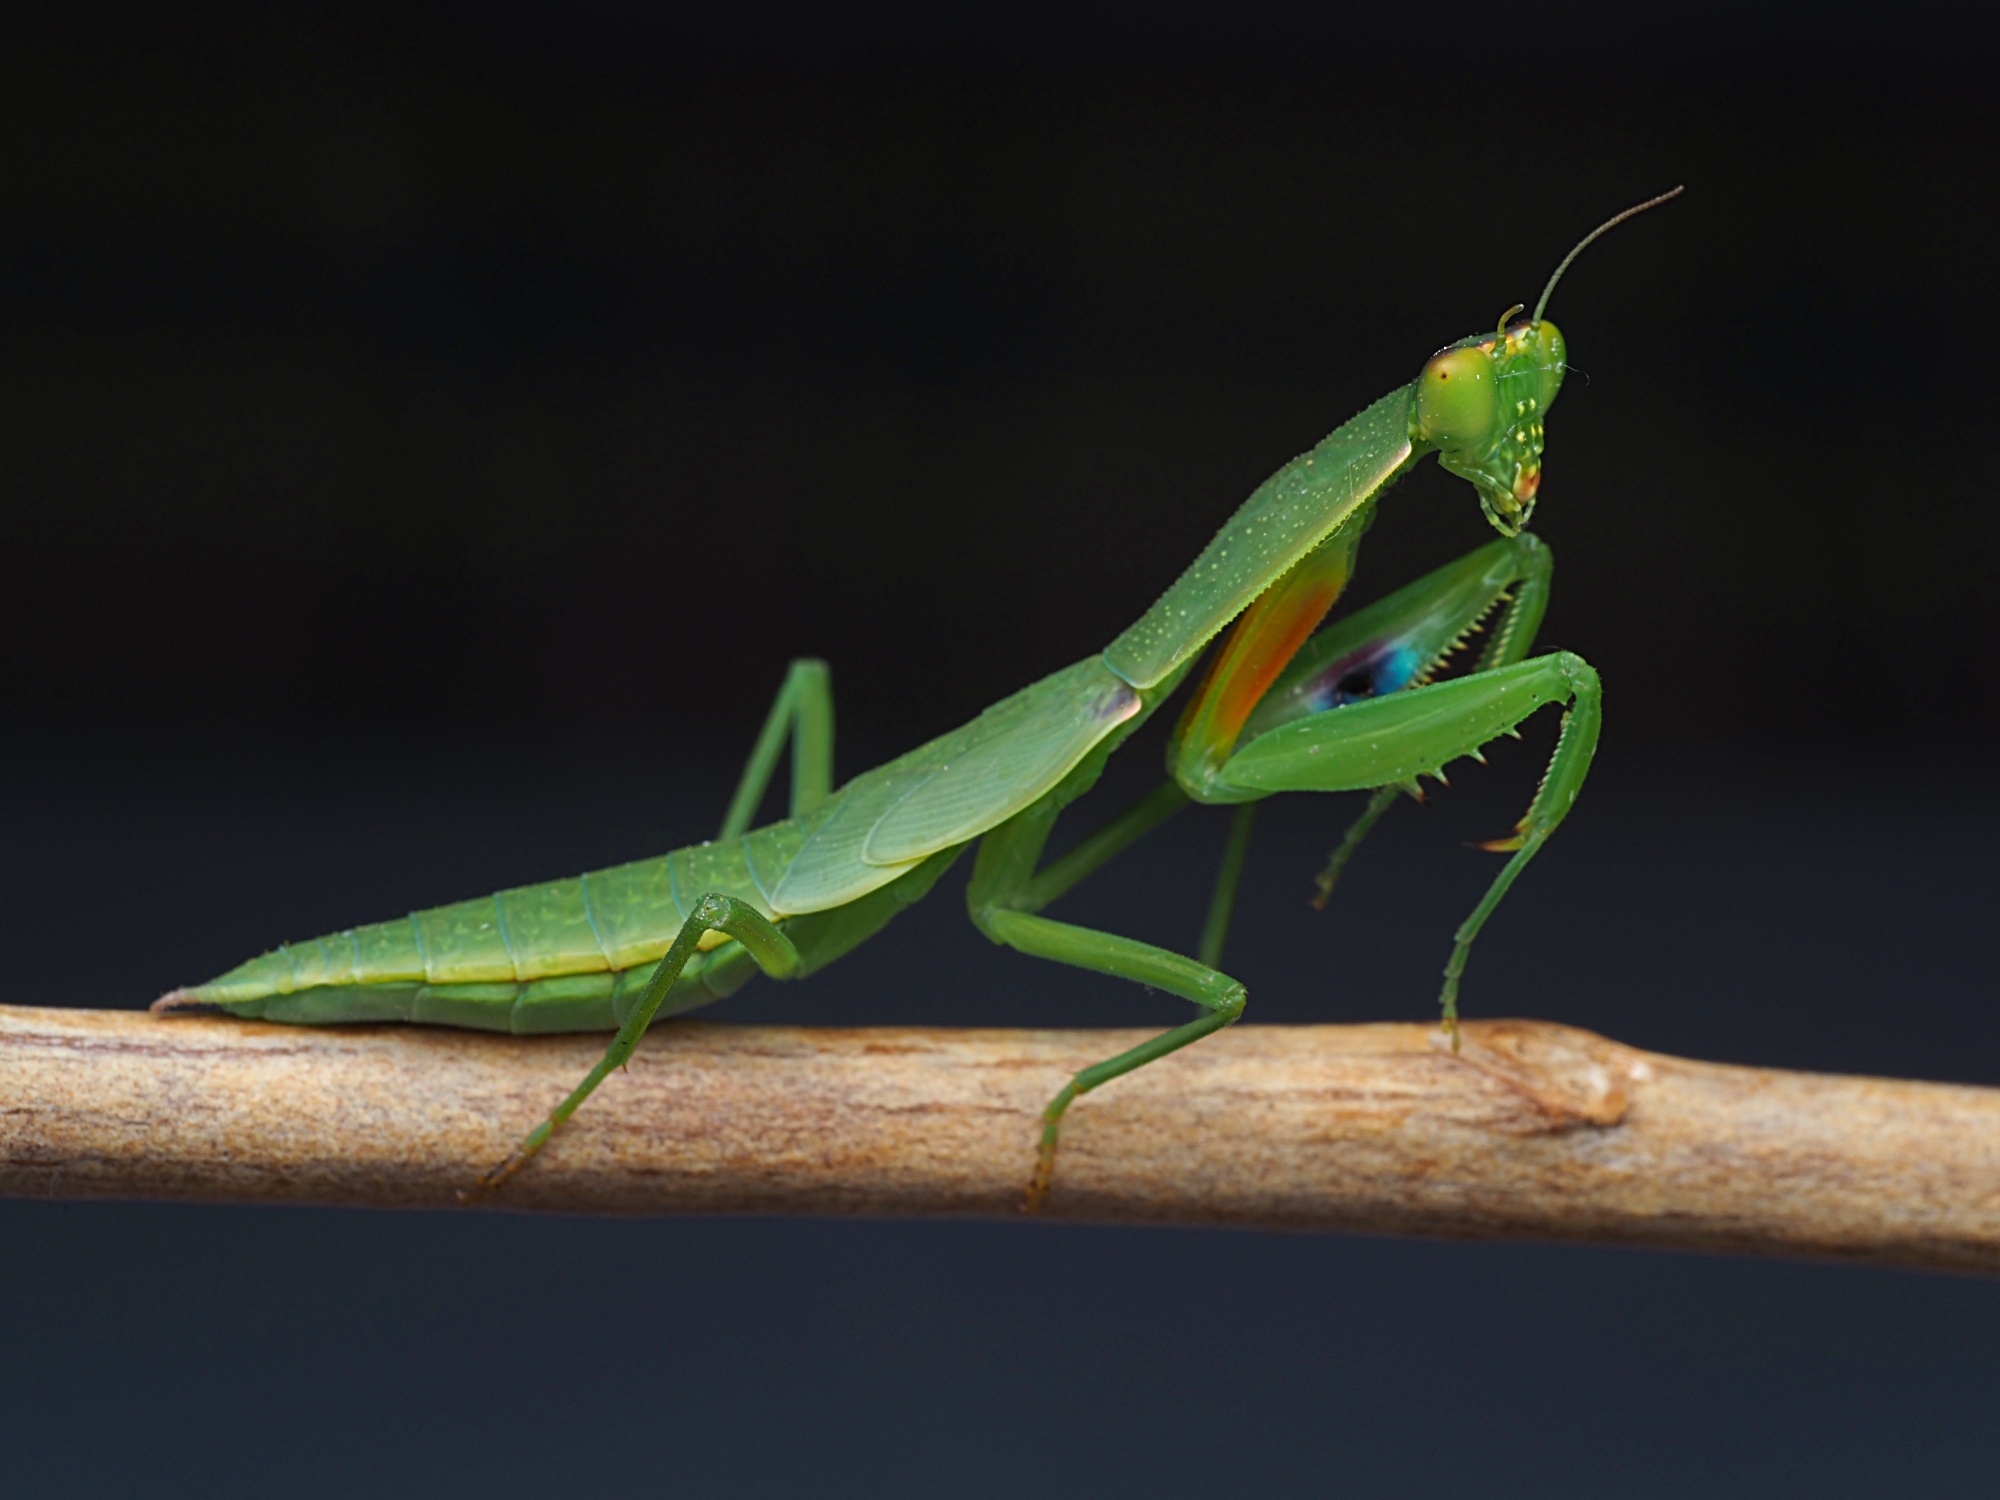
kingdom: Animalia
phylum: Arthropoda
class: Insecta
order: Mantodea
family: Mantidae
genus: Orthodera
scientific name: Orthodera novaezealandiae
